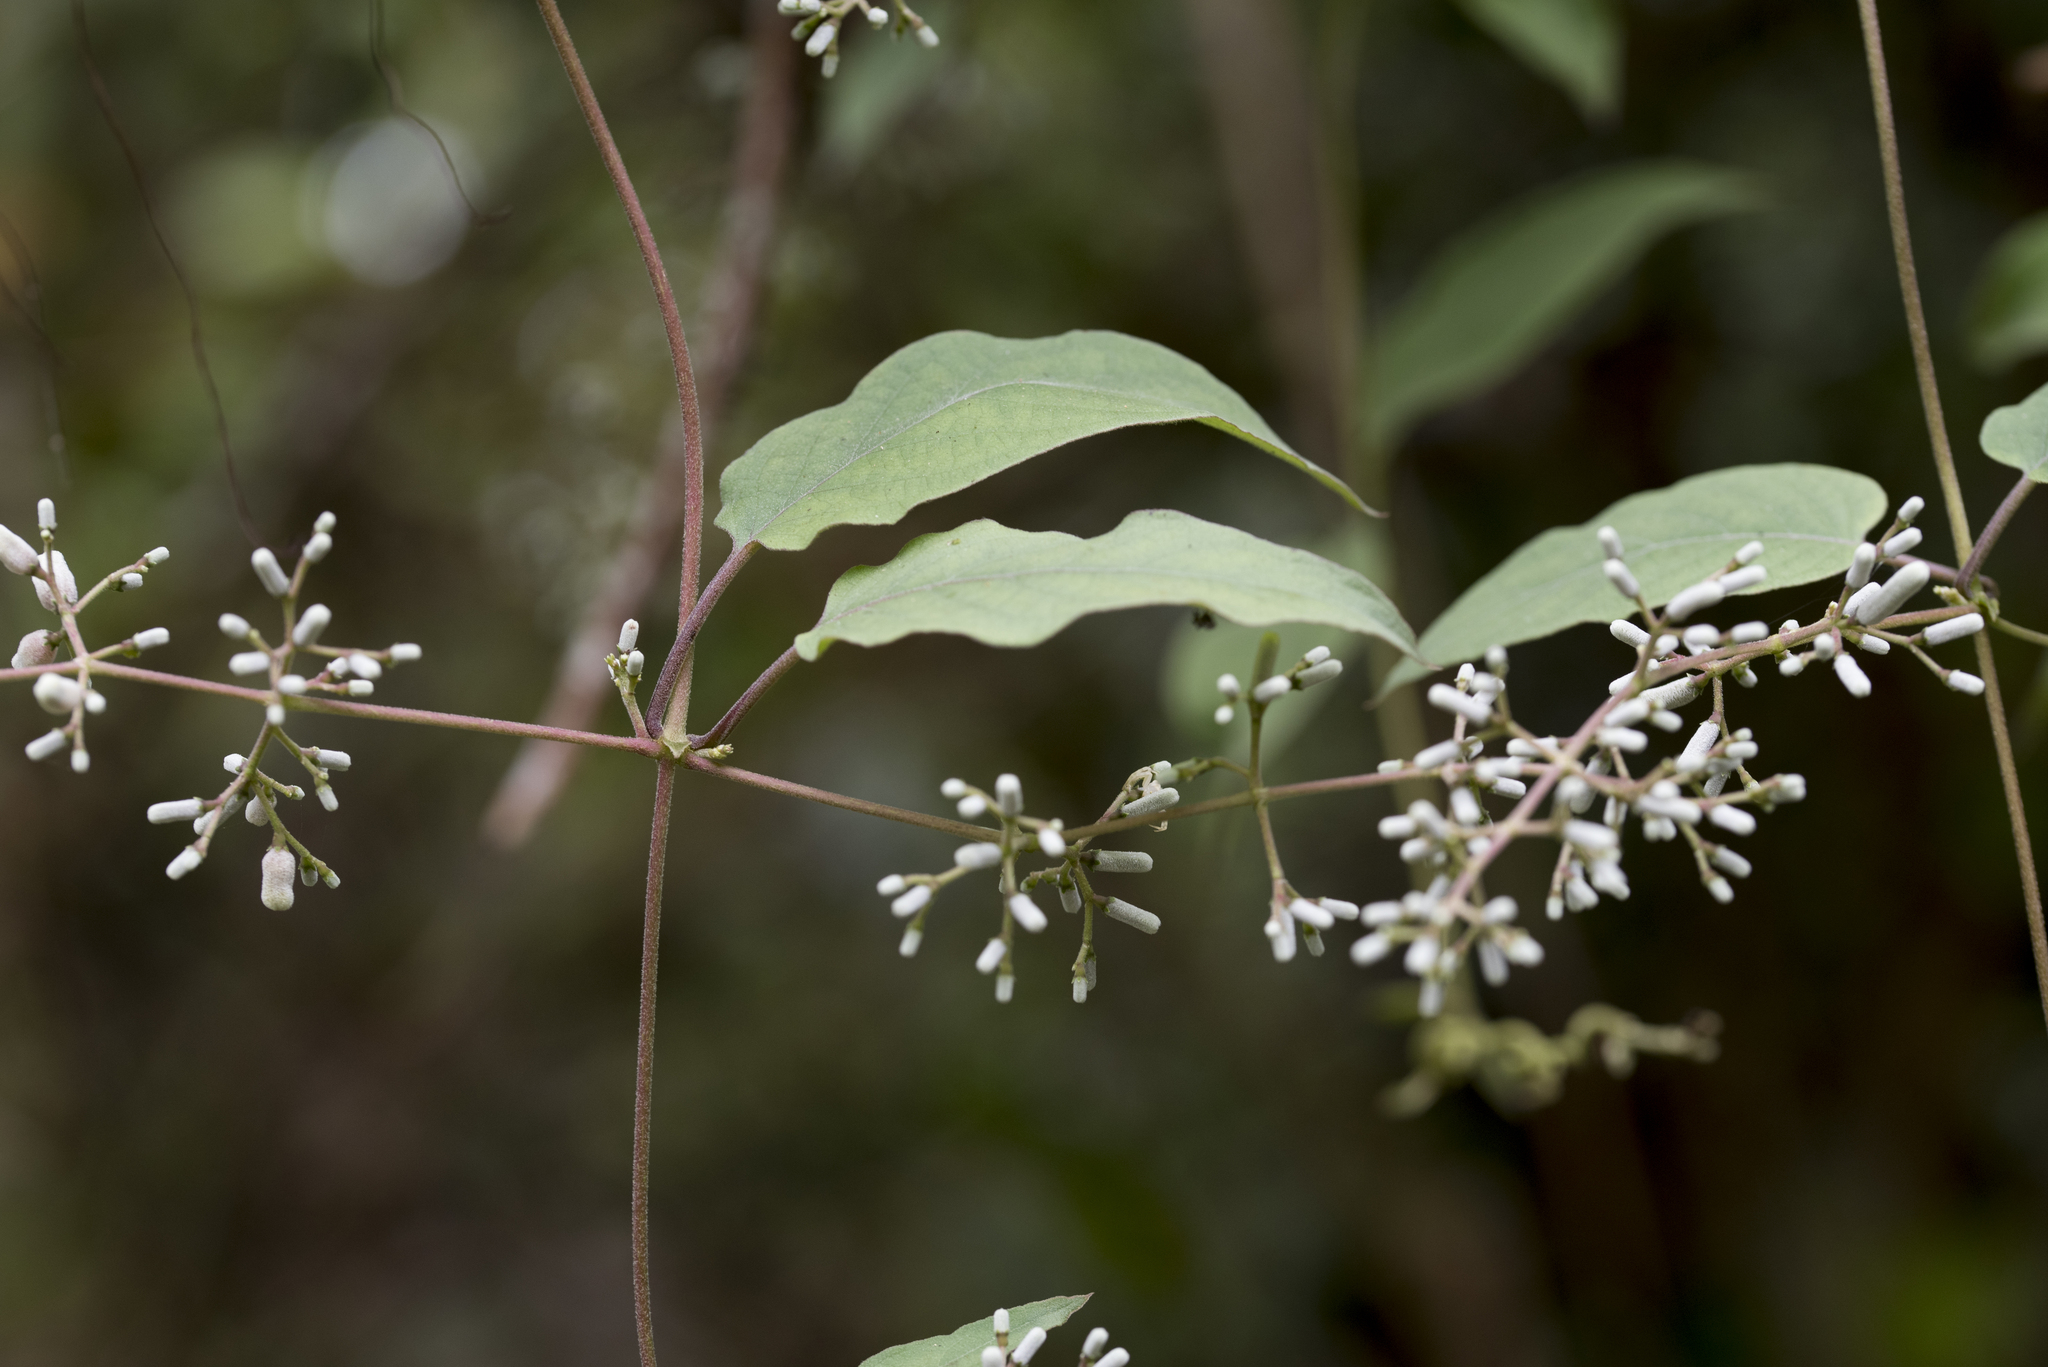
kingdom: Plantae
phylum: Tracheophyta
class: Magnoliopsida
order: Gentianales
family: Rubiaceae
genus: Paederia
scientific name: Paederia cavaleriei
